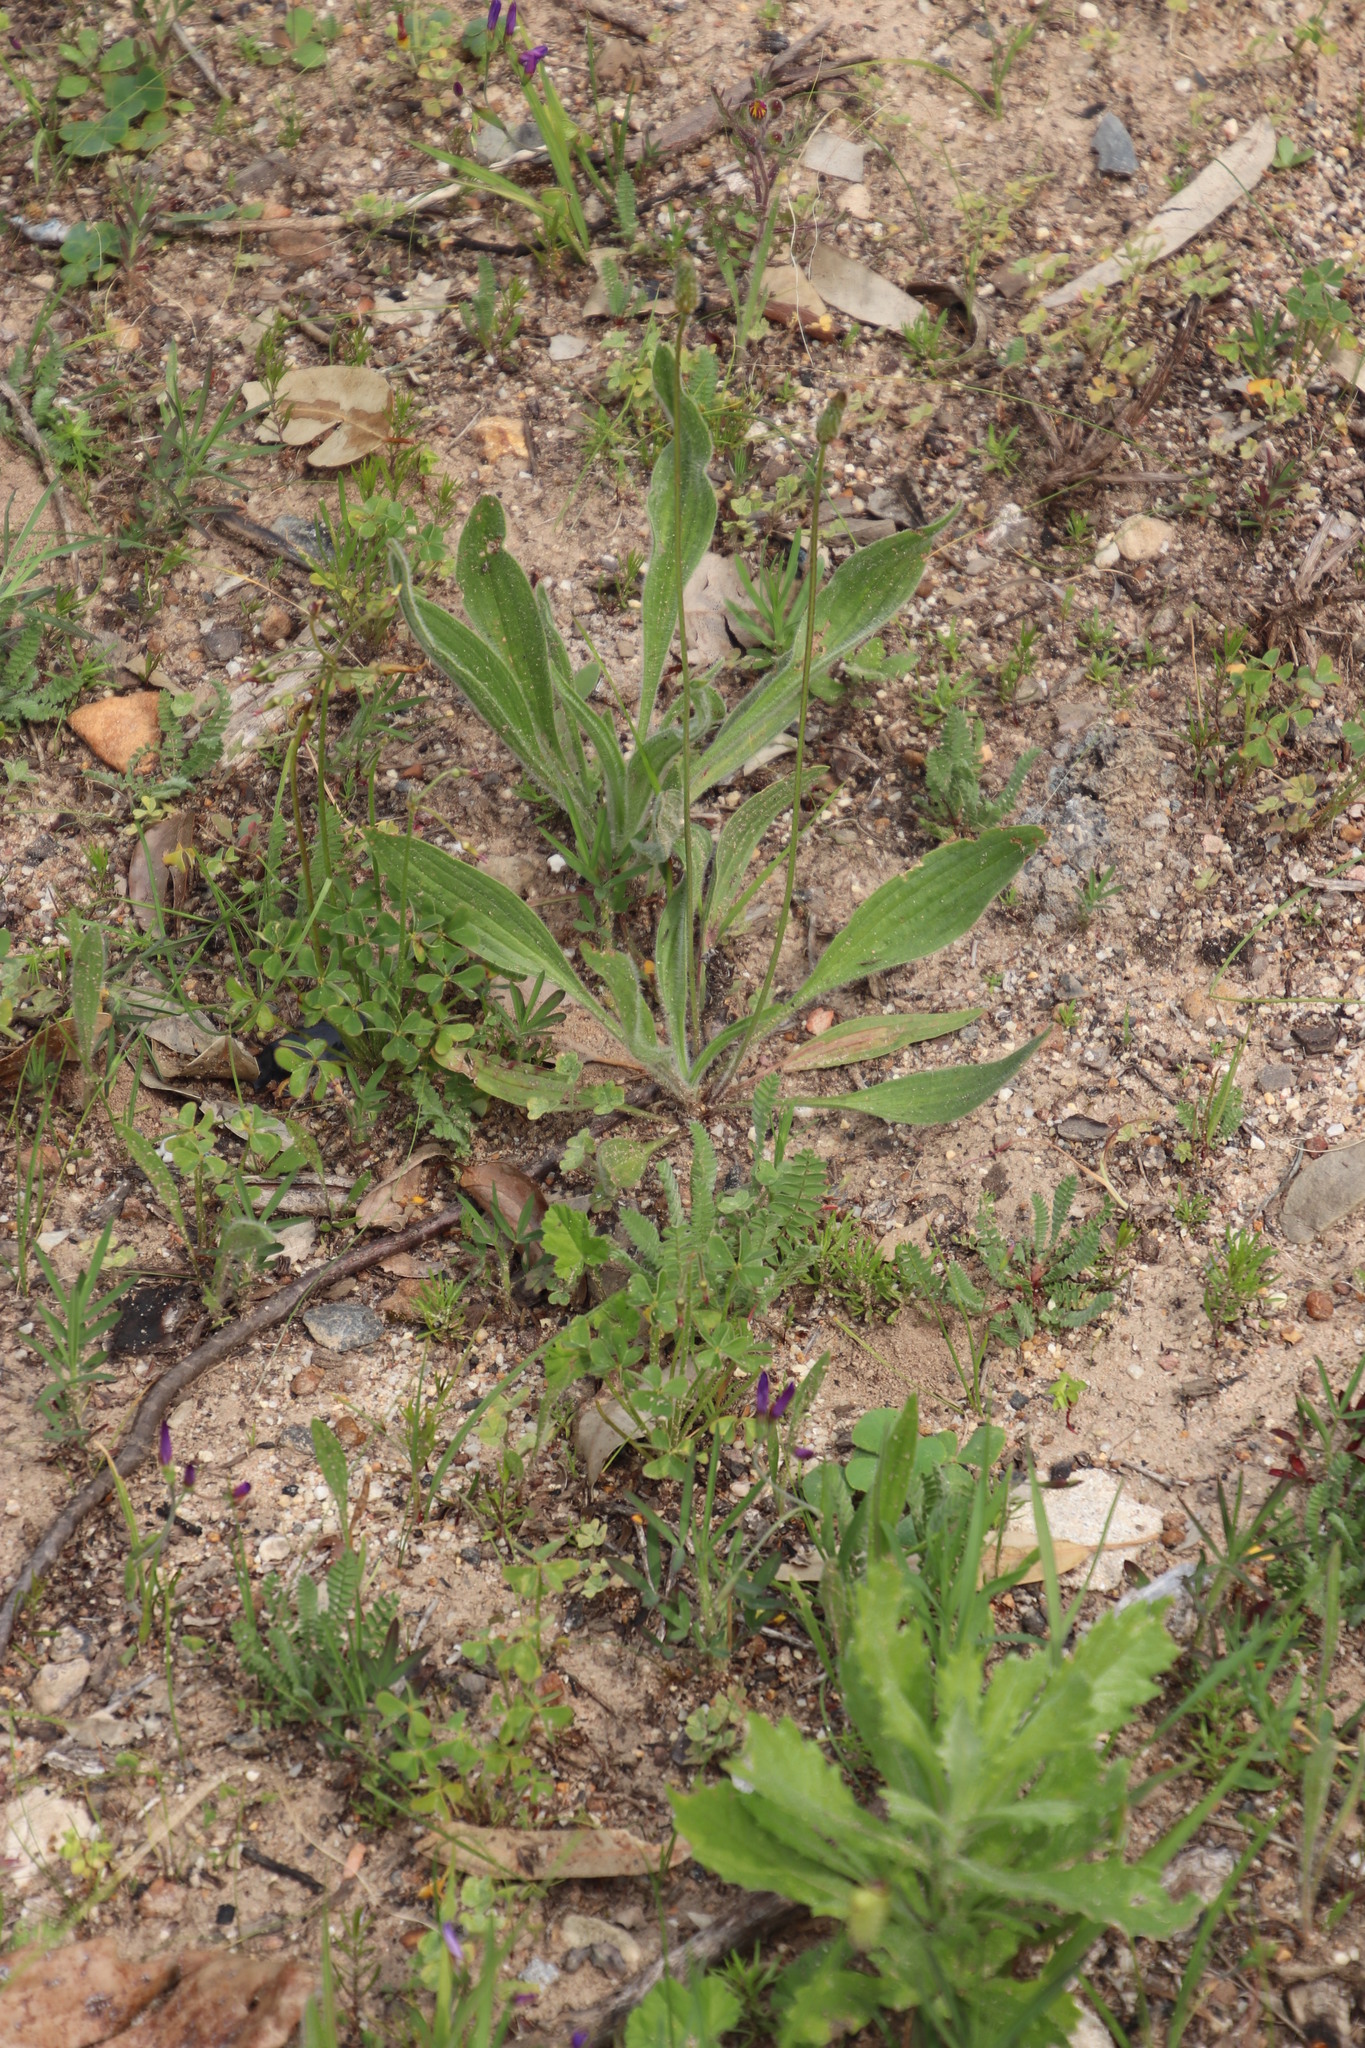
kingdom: Plantae
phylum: Tracheophyta
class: Magnoliopsida
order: Lamiales
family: Plantaginaceae
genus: Plantago
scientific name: Plantago lanceolata
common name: Ribwort plantain
